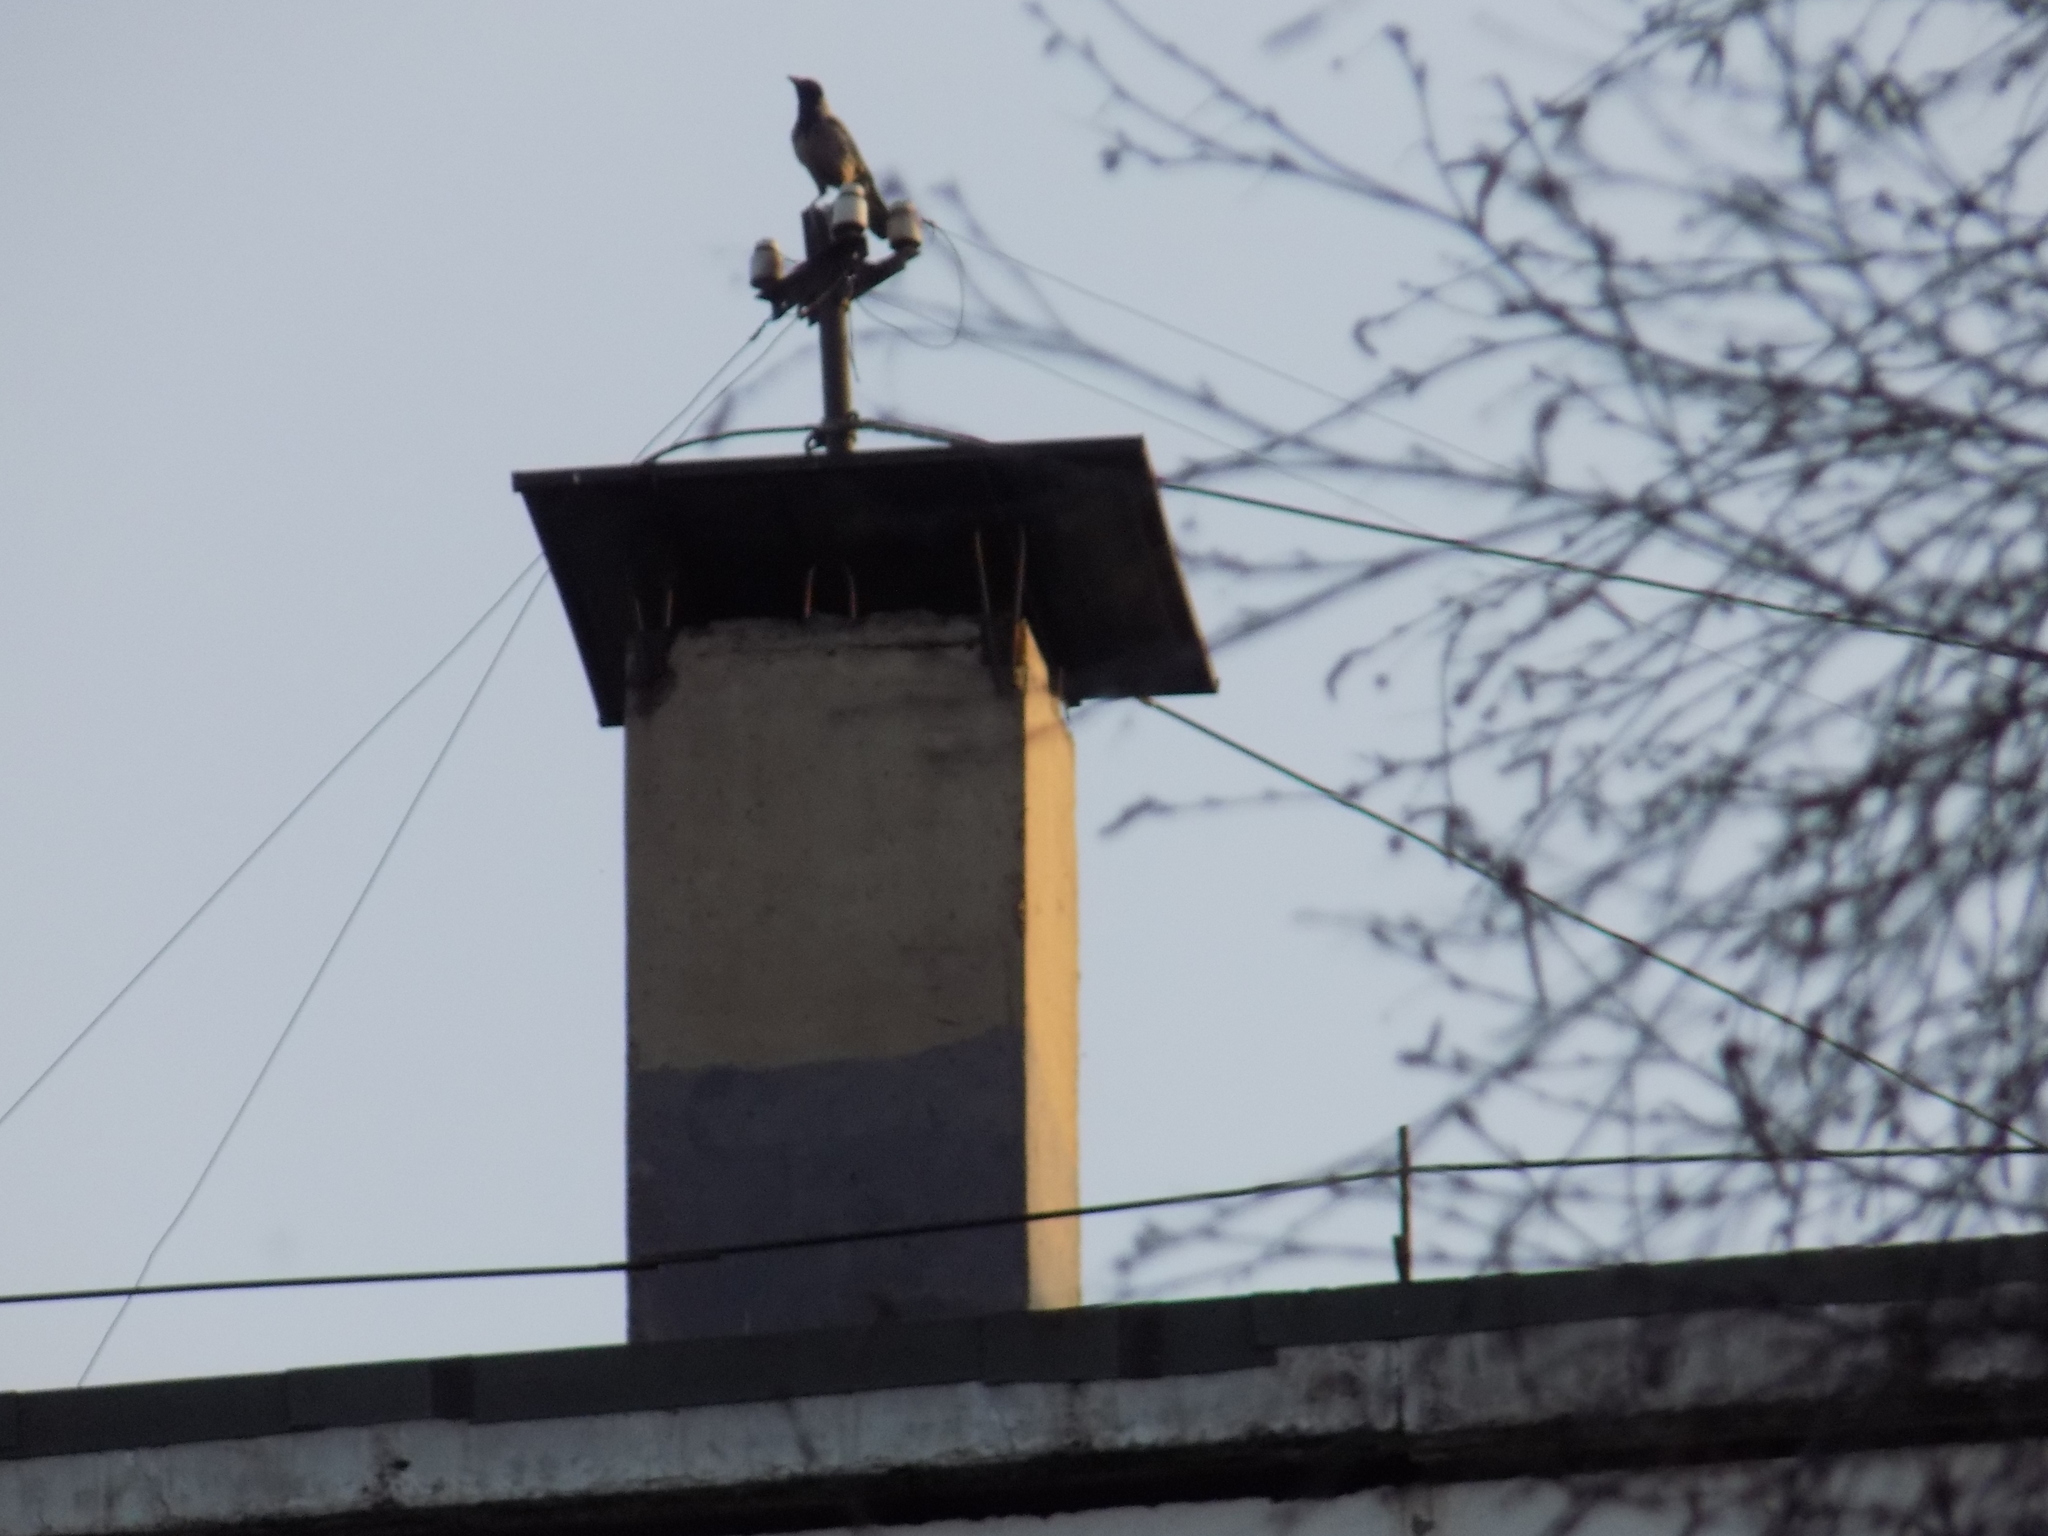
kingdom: Animalia
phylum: Chordata
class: Aves
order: Passeriformes
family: Corvidae
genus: Corvus
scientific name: Corvus cornix
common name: Hooded crow
